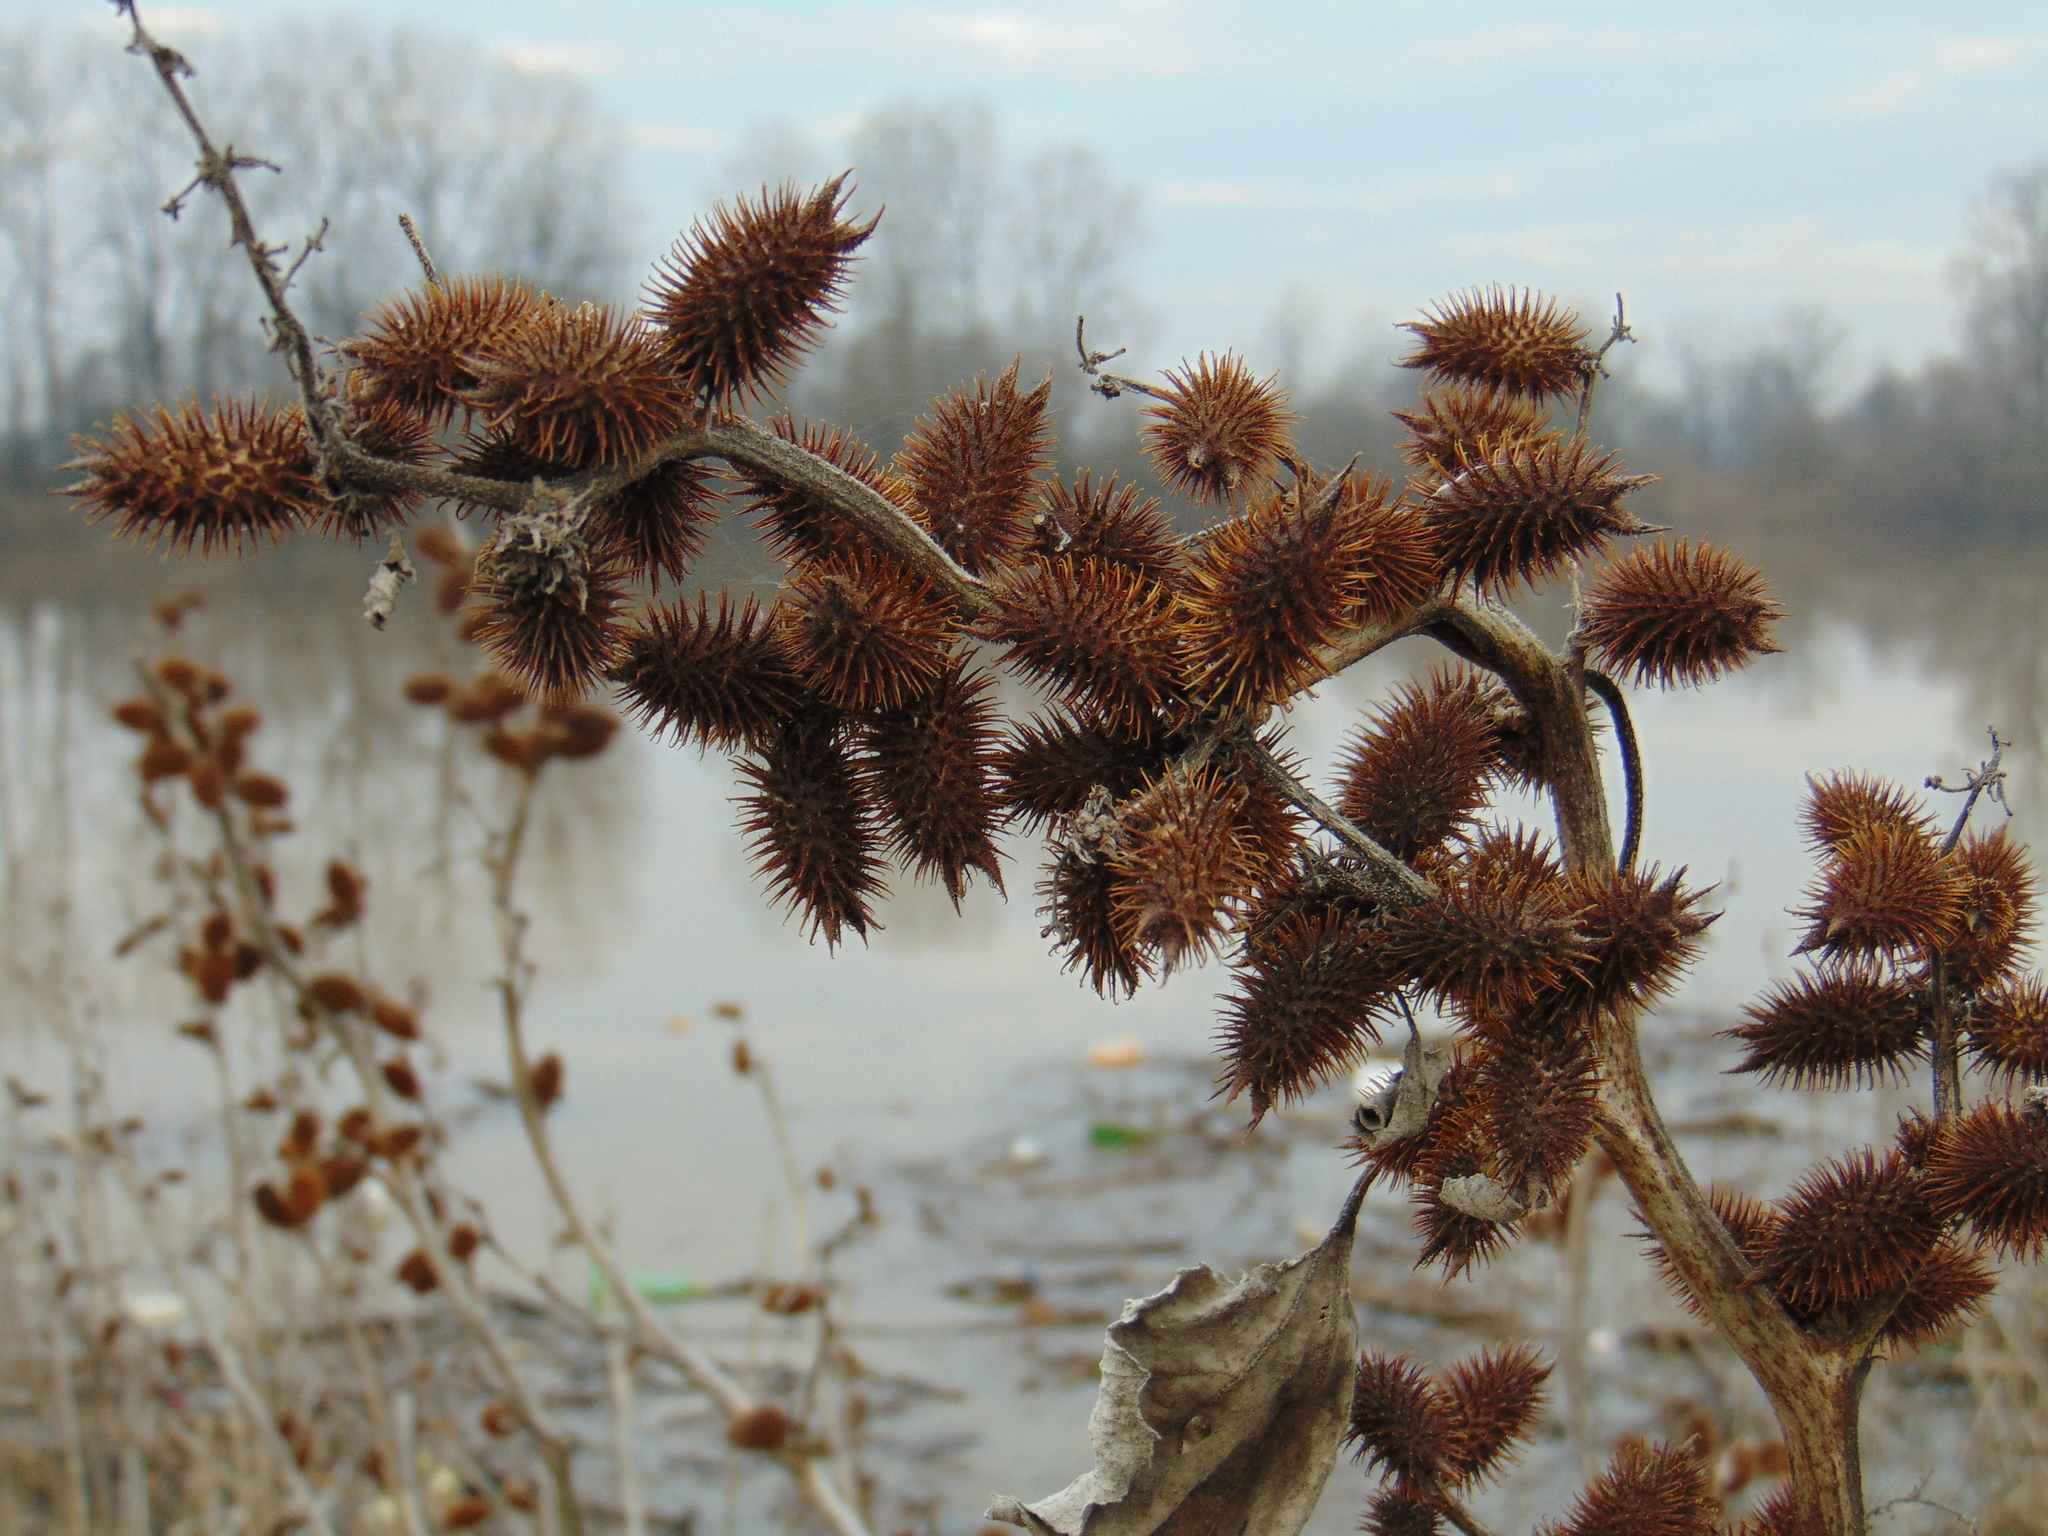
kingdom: Plantae
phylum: Tracheophyta
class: Magnoliopsida
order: Asterales
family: Asteraceae
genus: Xanthium
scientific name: Xanthium strumarium
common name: Rough cocklebur
